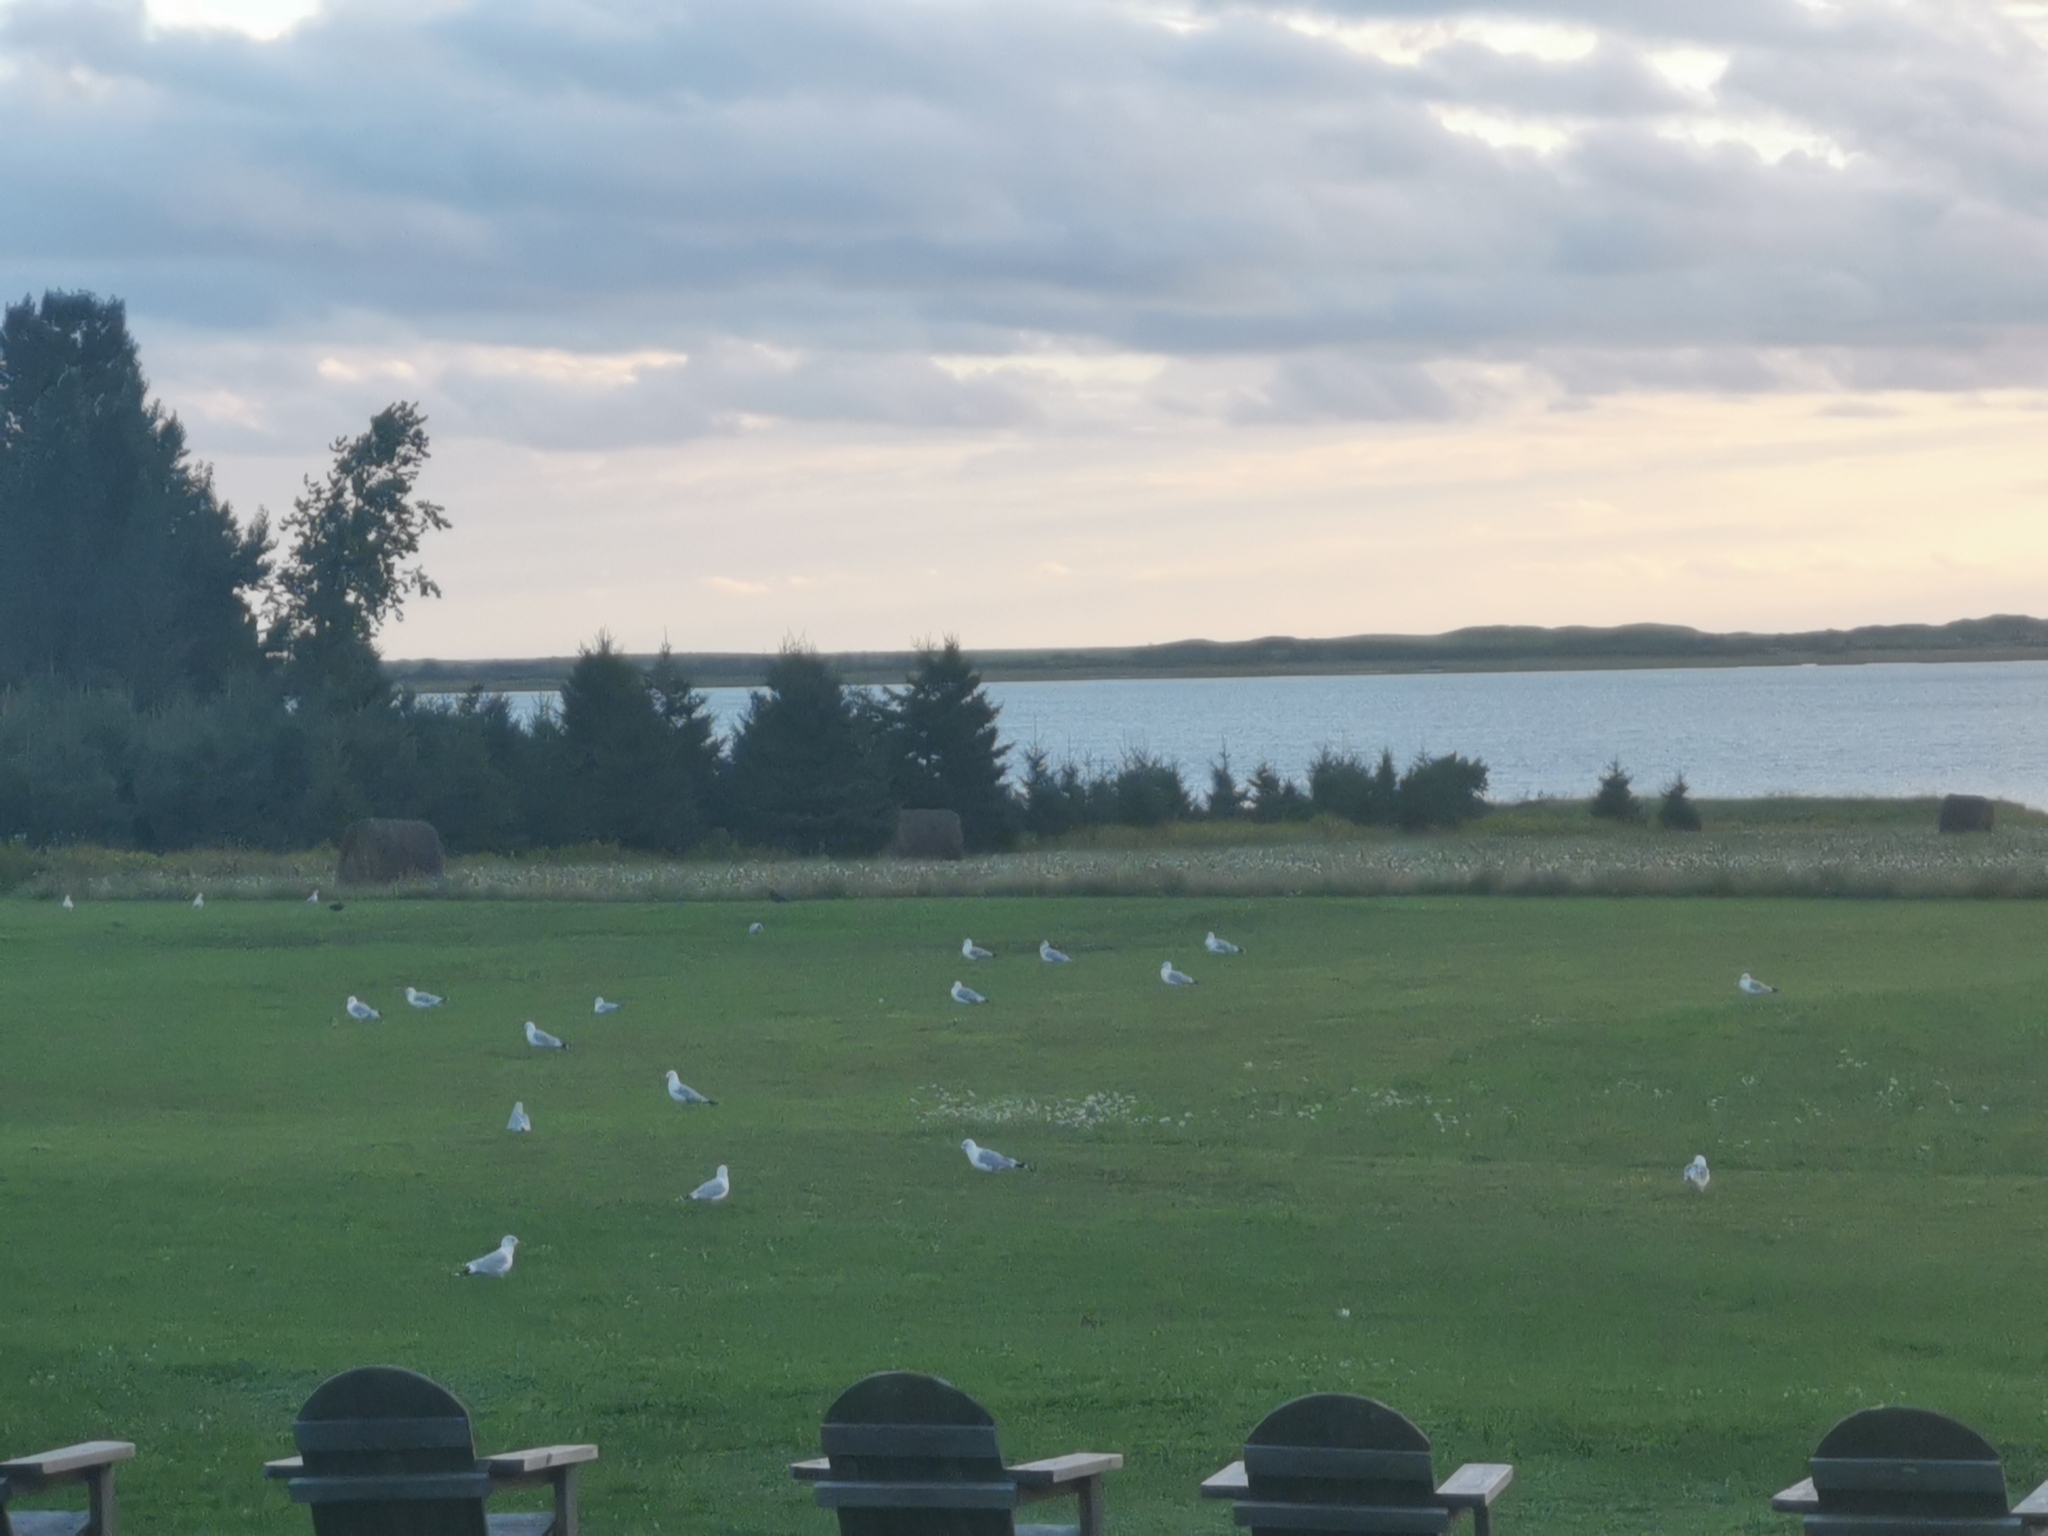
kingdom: Animalia
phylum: Chordata
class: Aves
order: Charadriiformes
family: Laridae
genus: Larus
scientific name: Larus delawarensis
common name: Ring-billed gull
